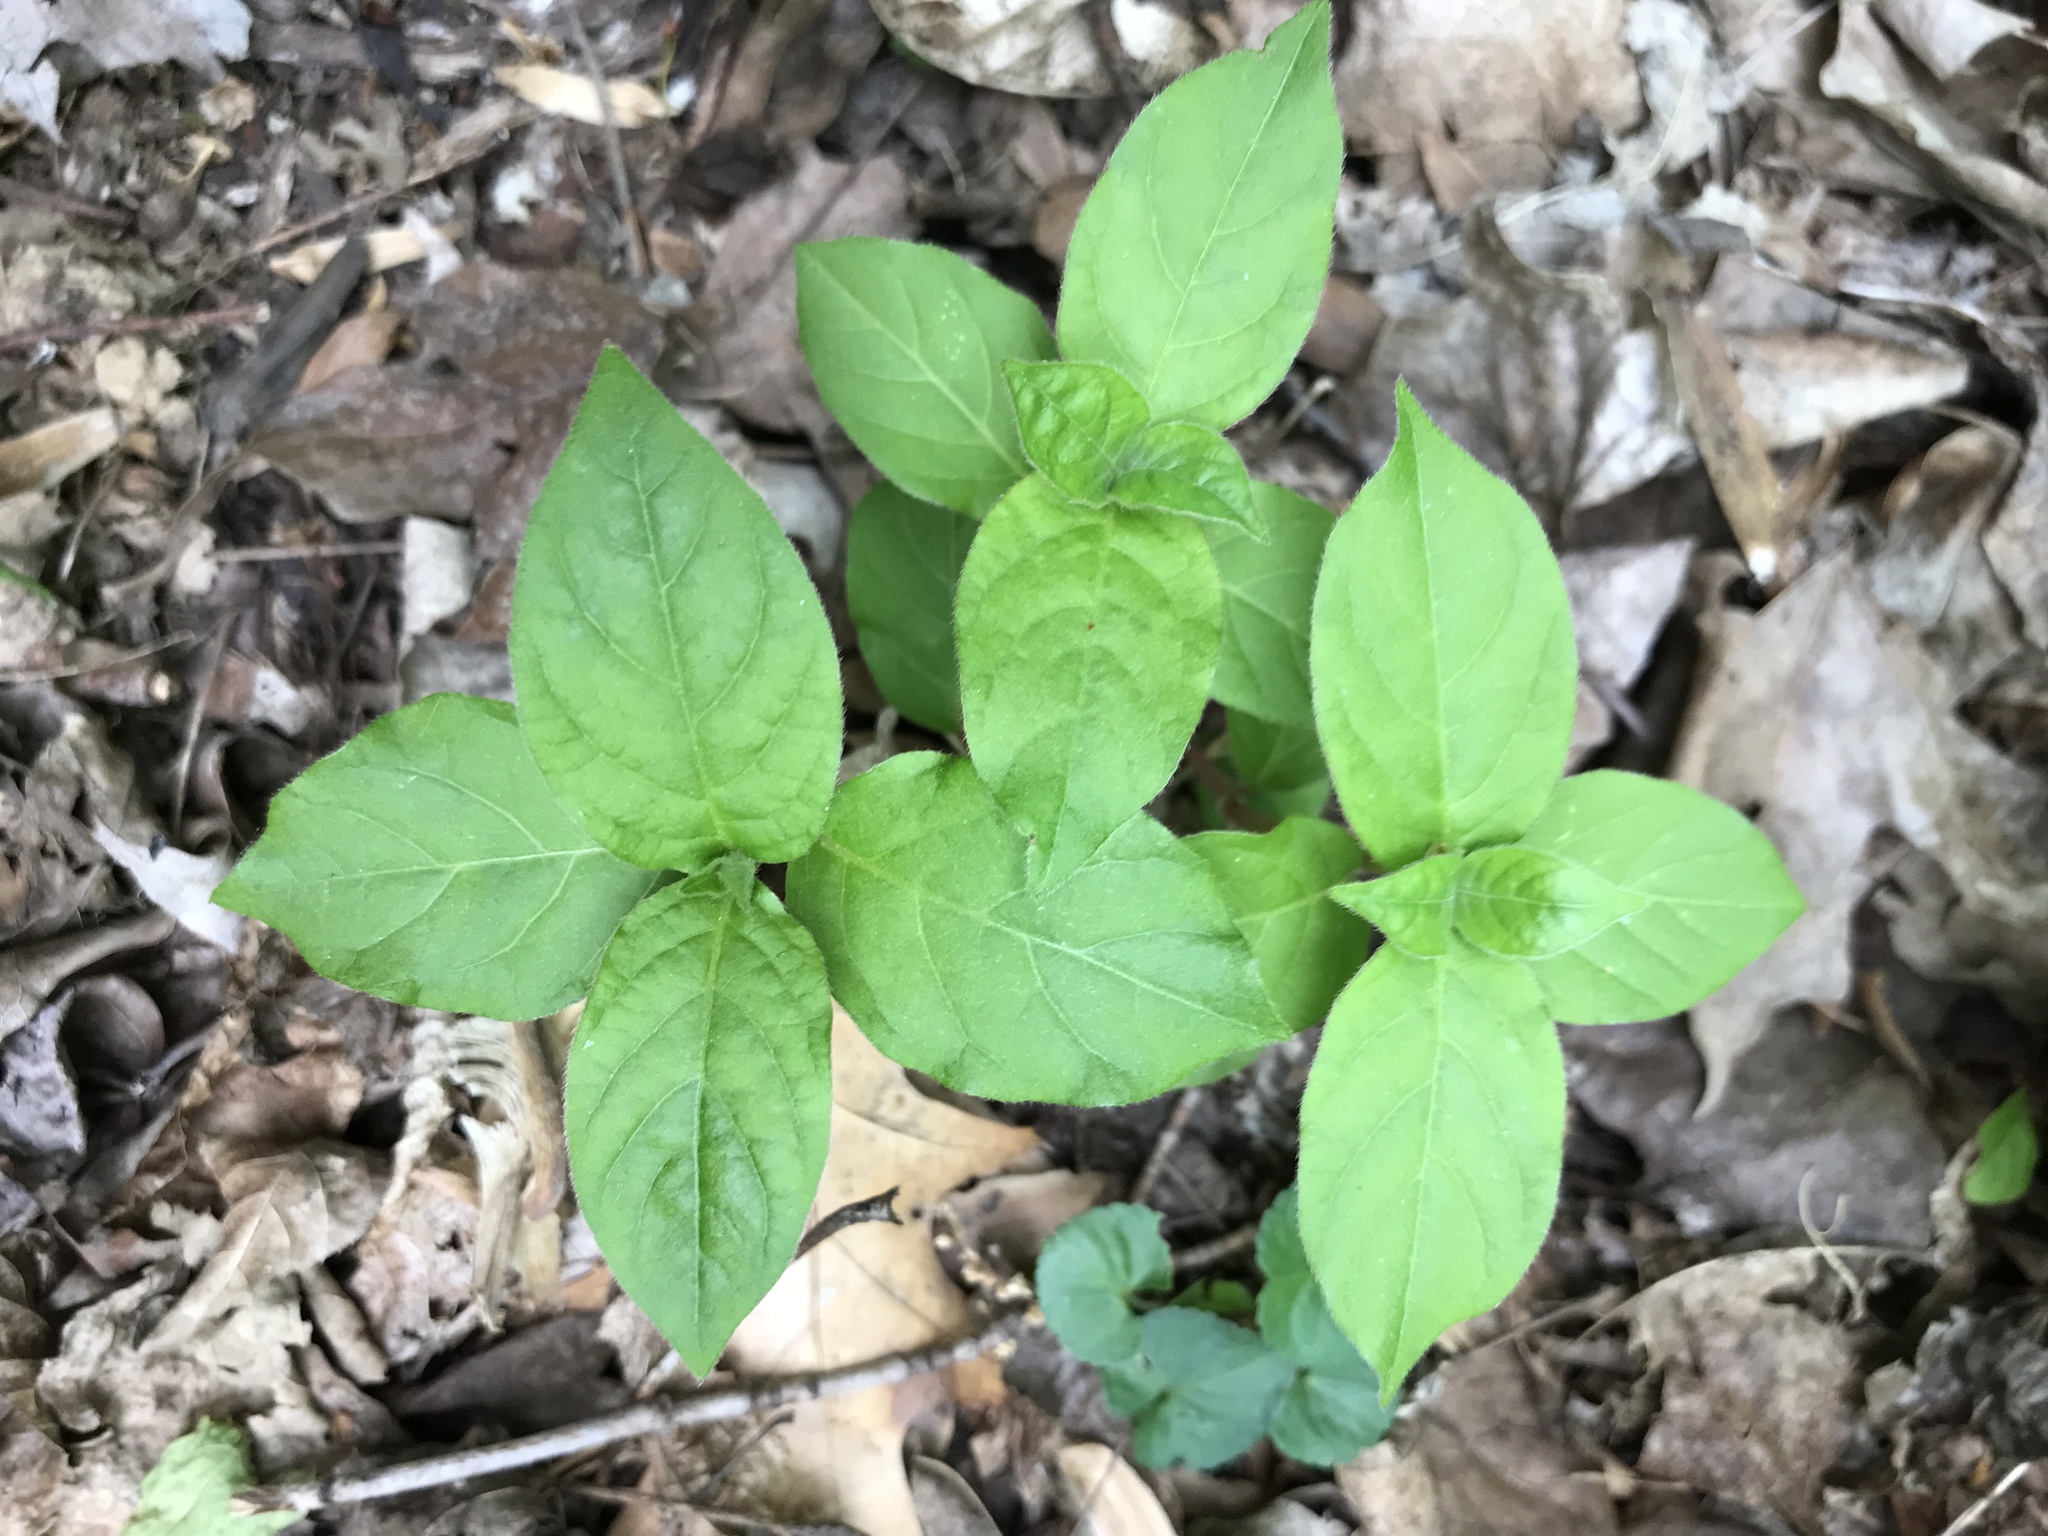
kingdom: Plantae
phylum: Tracheophyta
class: Magnoliopsida
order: Caryophyllales
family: Amaranthaceae
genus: Achyranthes
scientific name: Achyranthes bidentata
